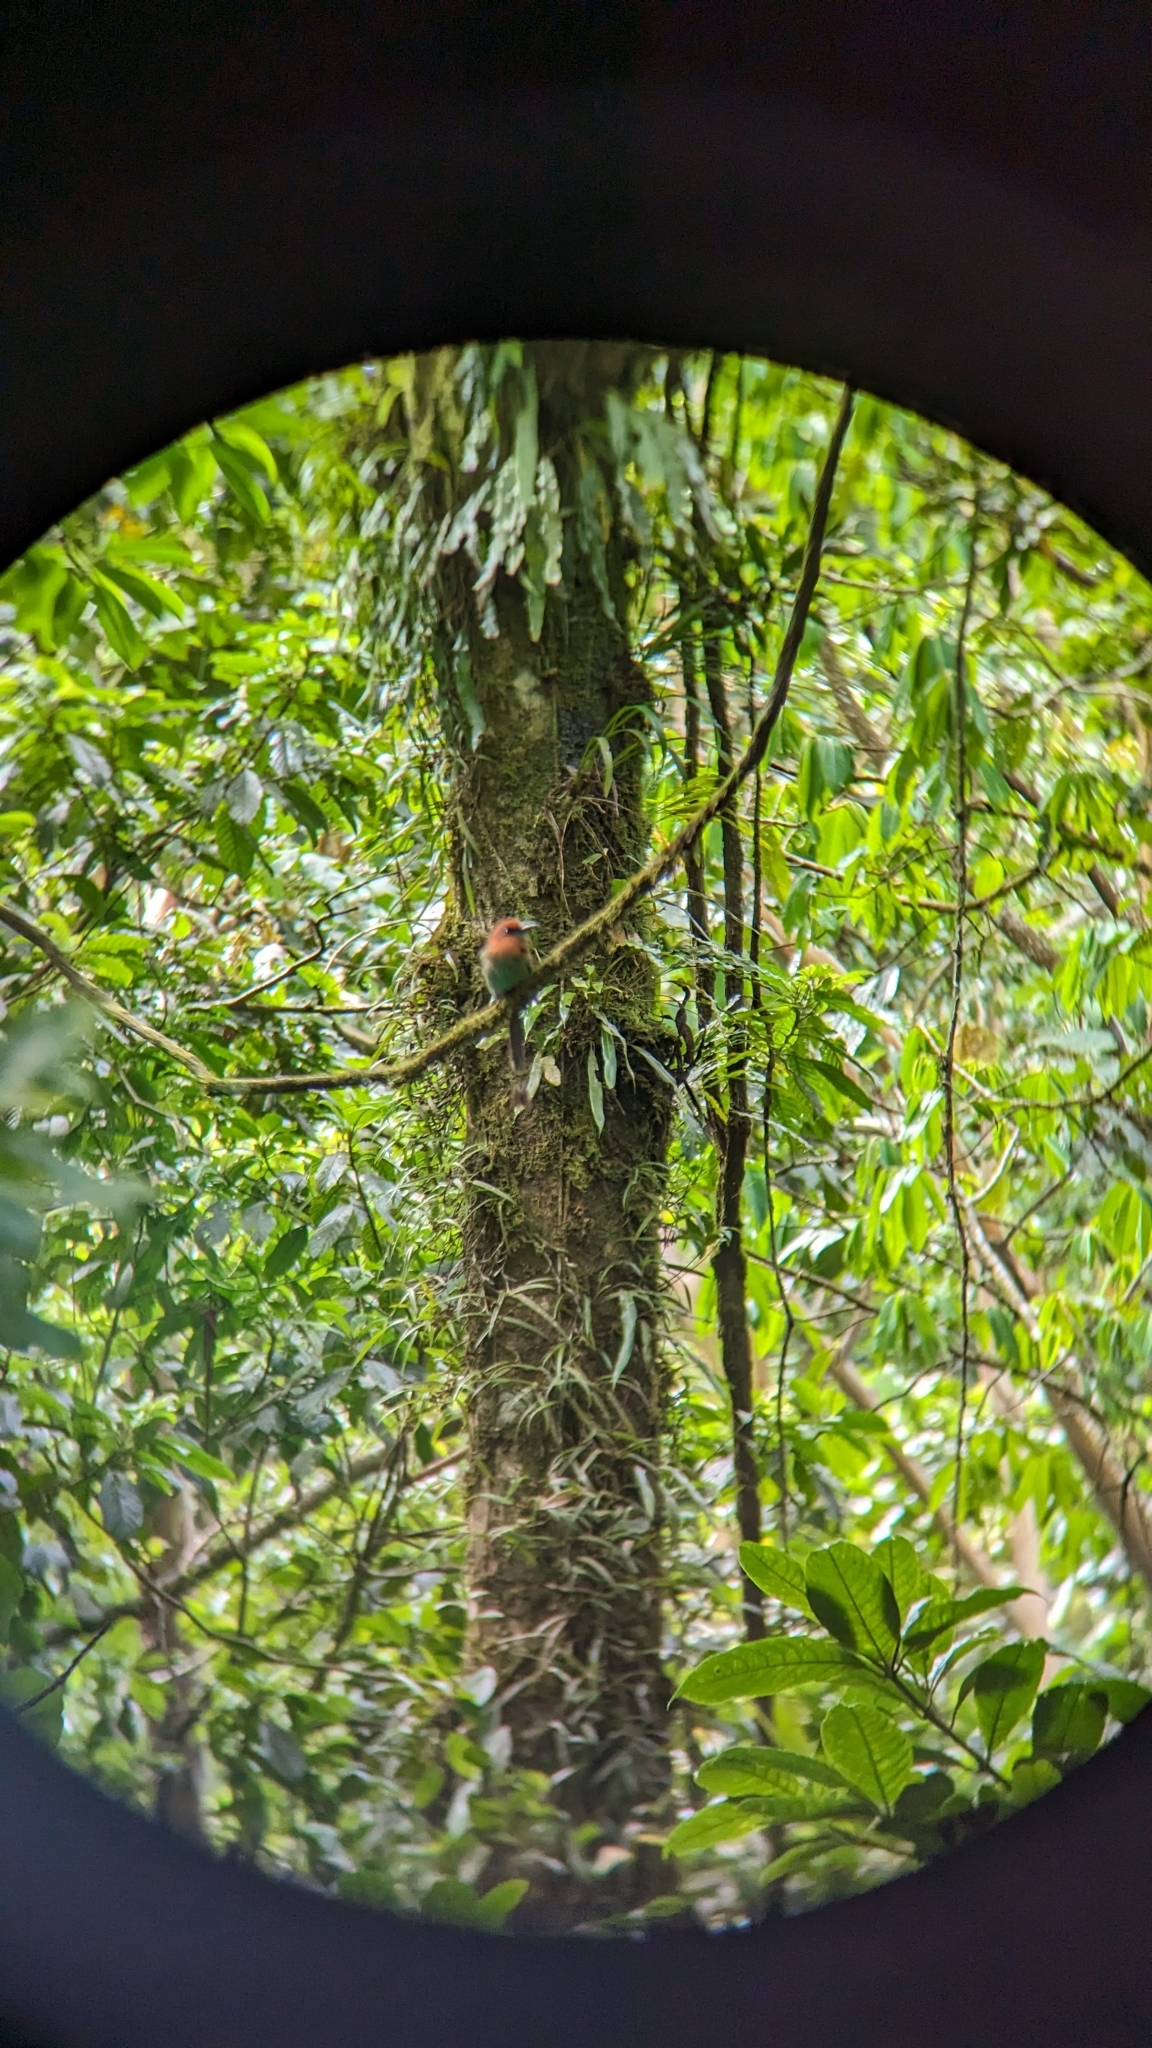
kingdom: Animalia
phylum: Chordata
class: Aves
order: Coraciiformes
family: Momotidae
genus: Electron
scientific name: Electron platyrhynchum
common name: Broad-billed motmot
